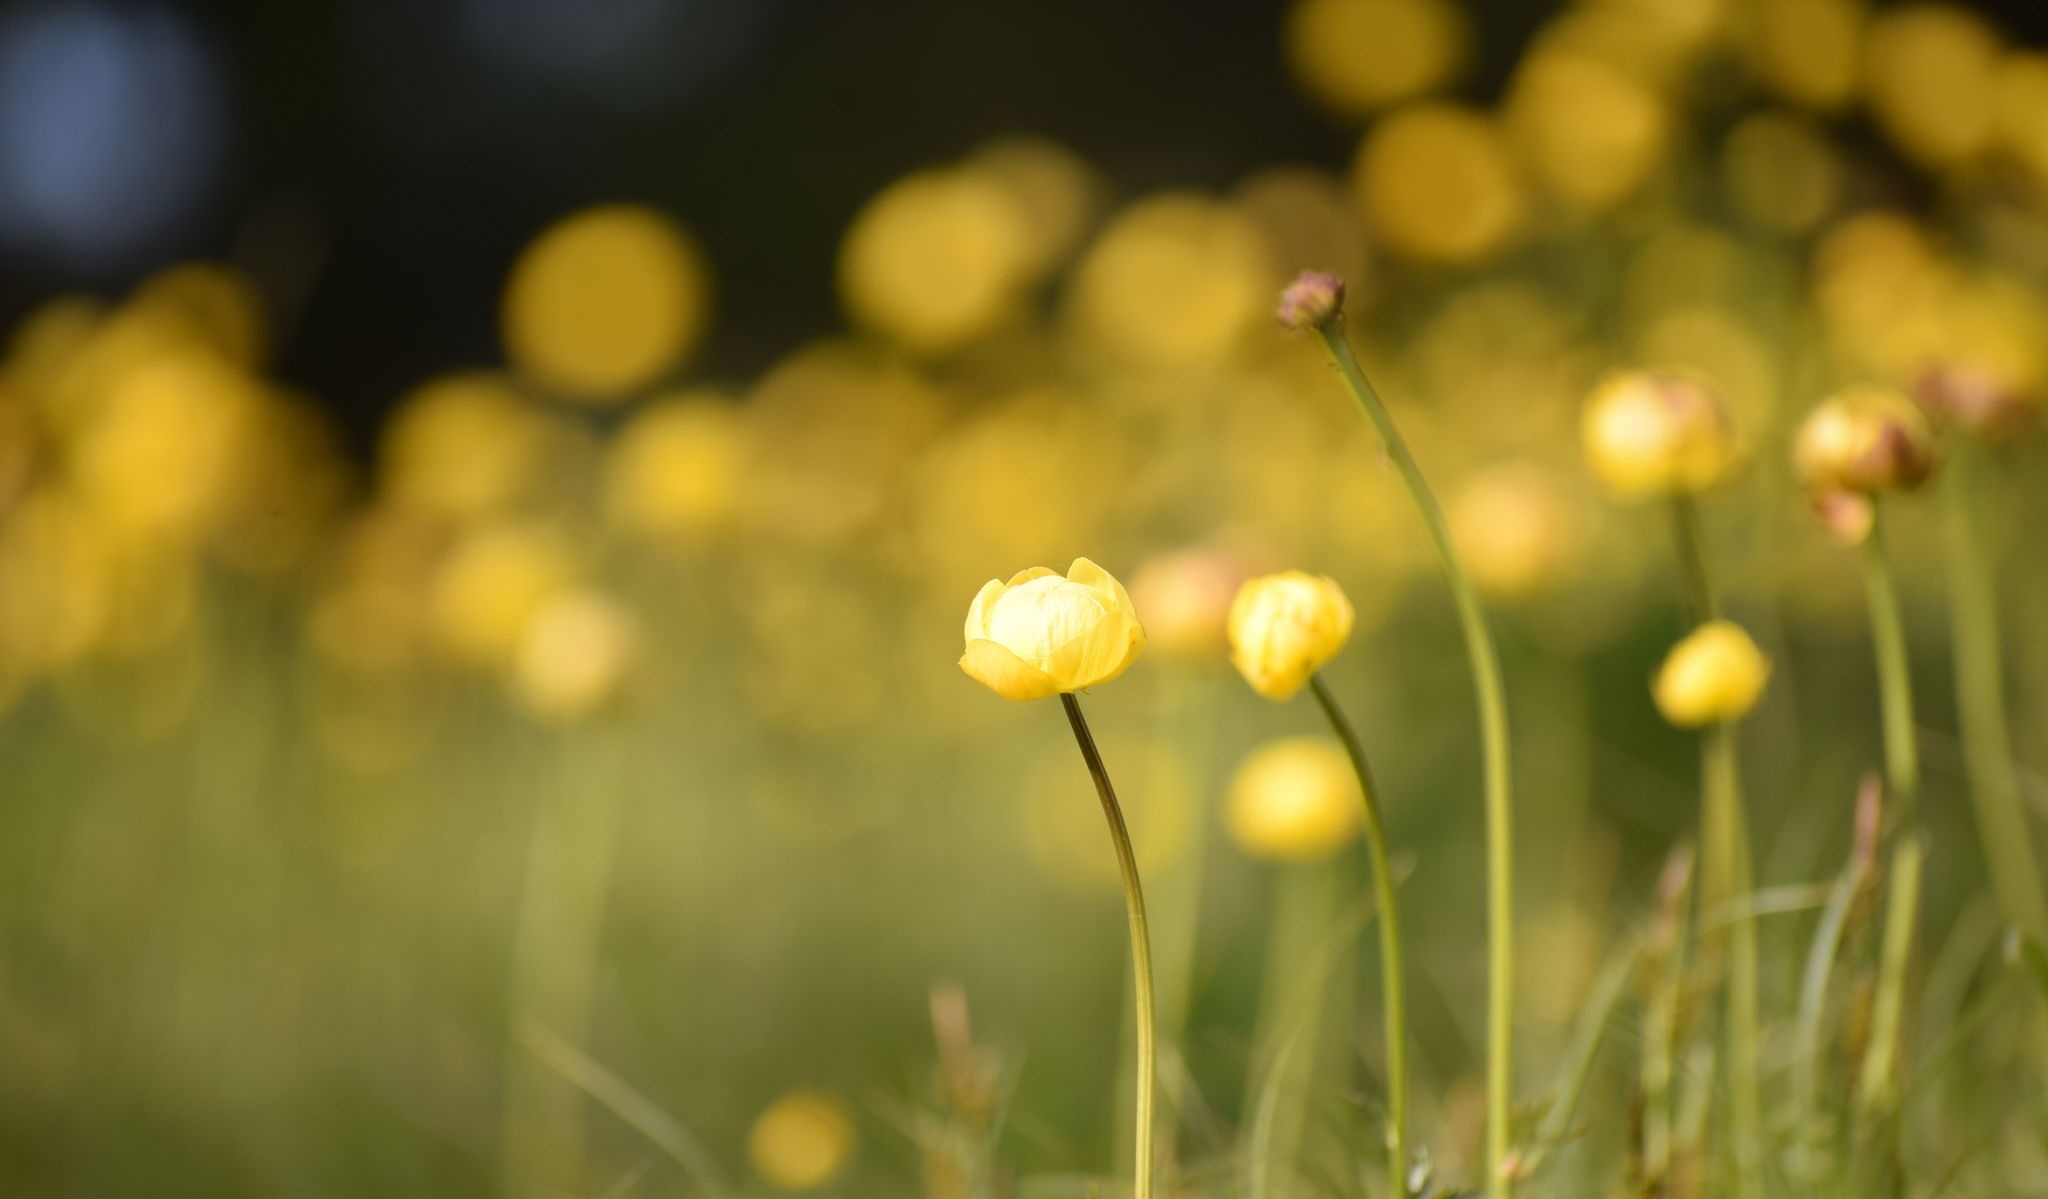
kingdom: Plantae
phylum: Tracheophyta
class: Magnoliopsida
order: Ranunculales
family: Ranunculaceae
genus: Trollius
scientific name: Trollius europaeus
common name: European globeflower
